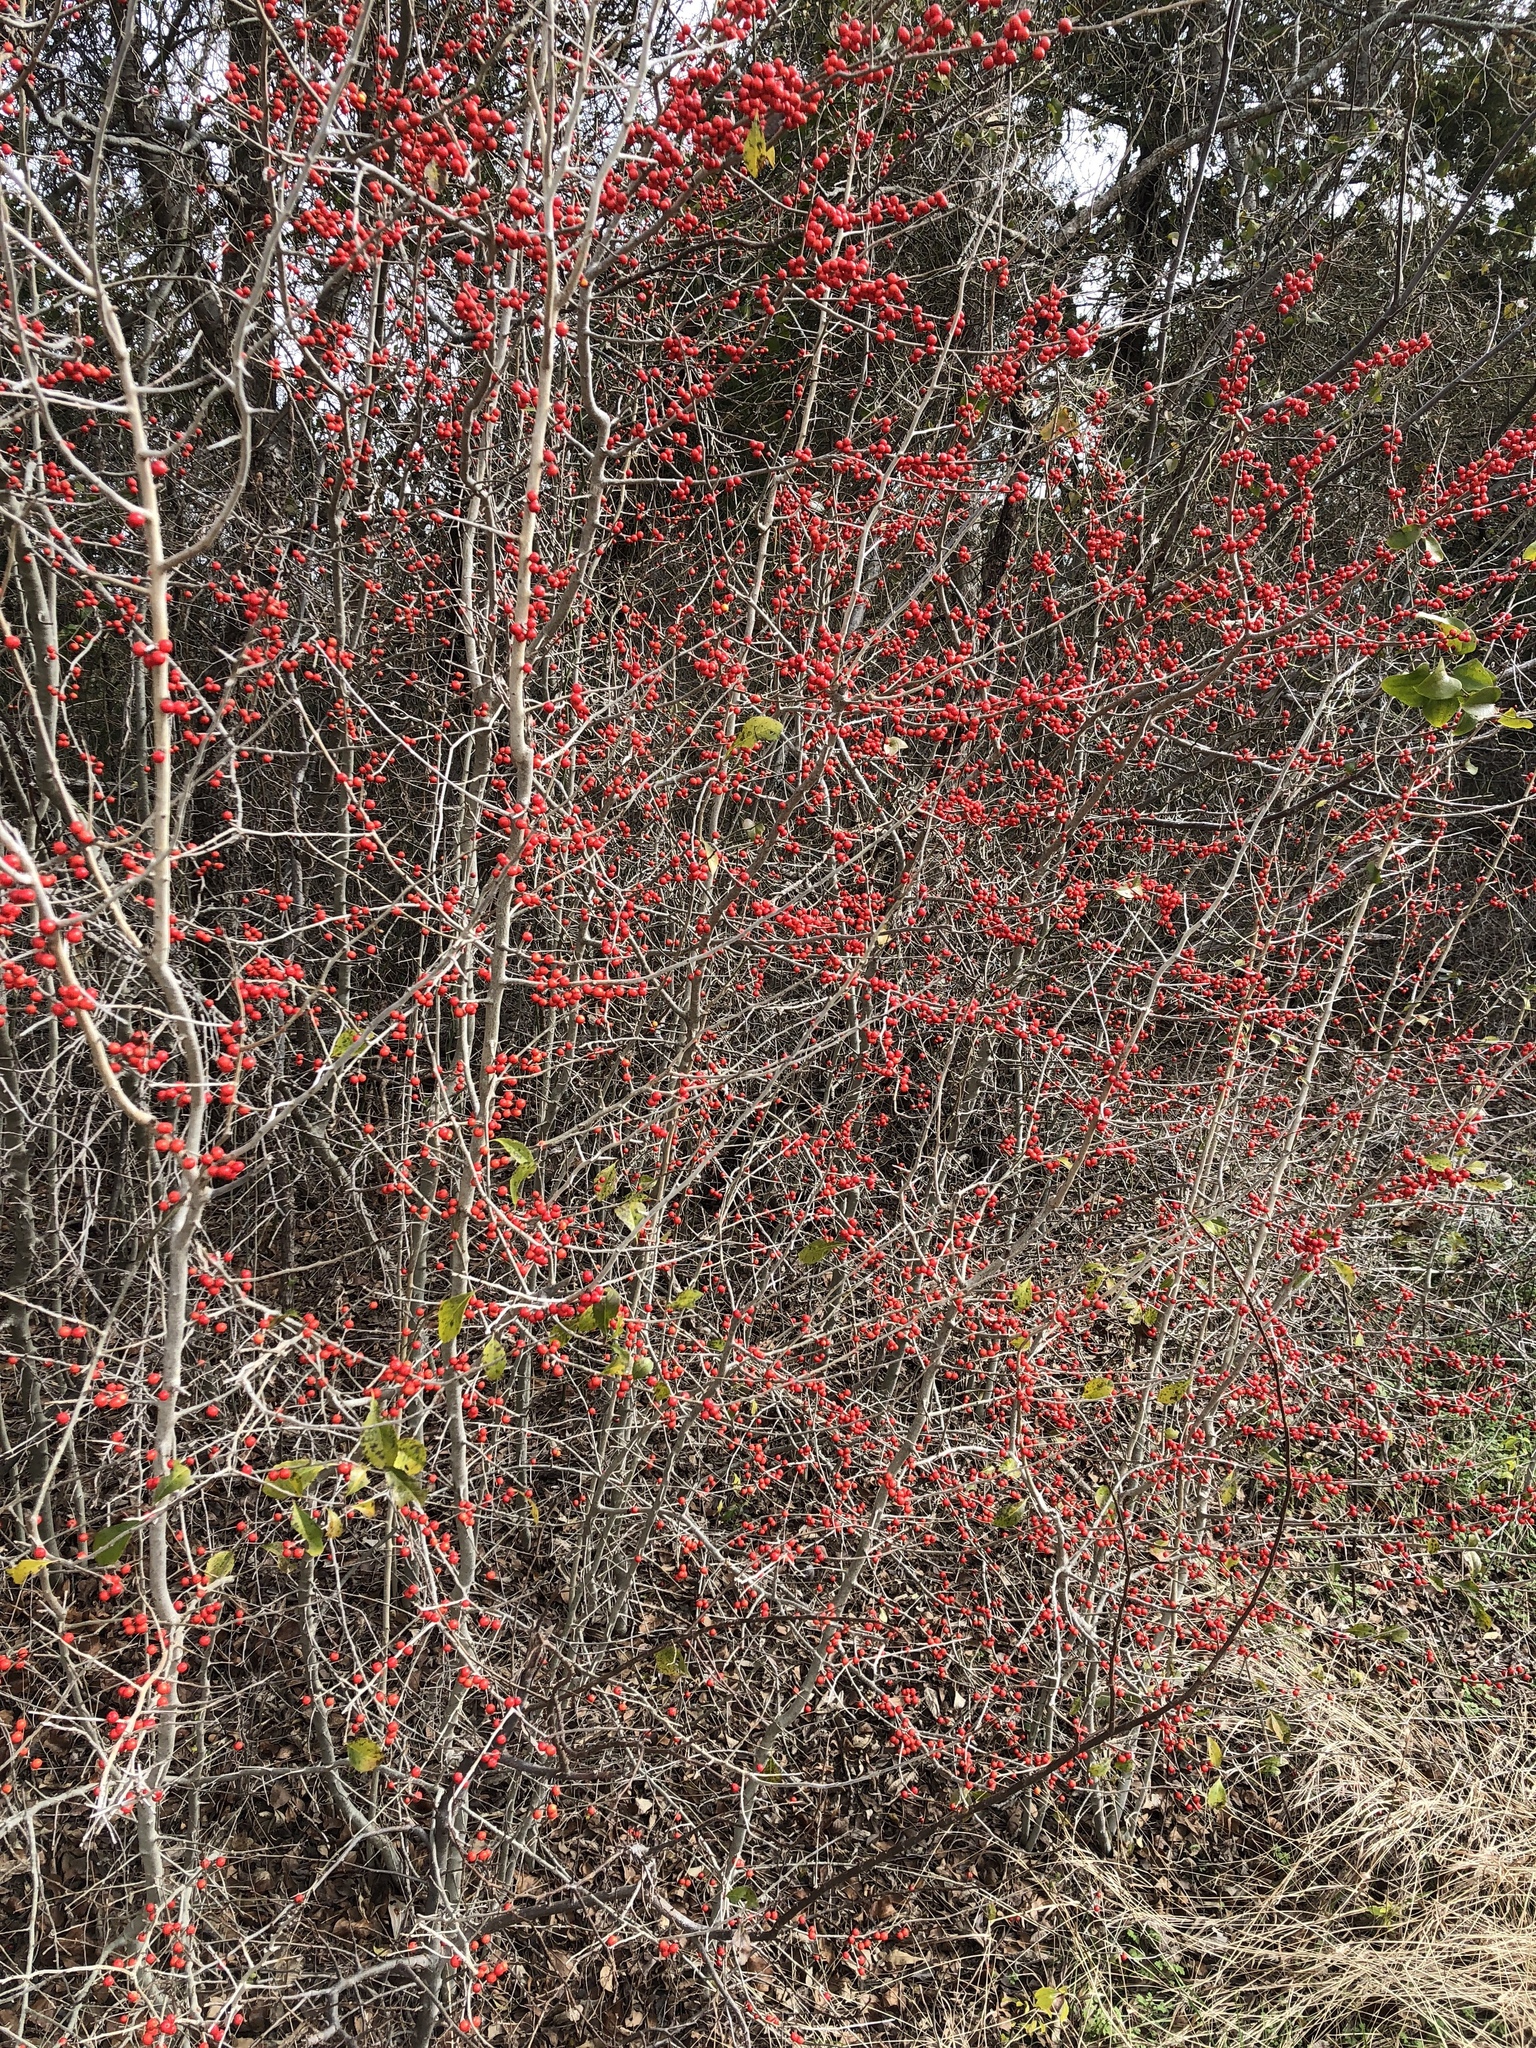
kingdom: Plantae
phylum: Tracheophyta
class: Magnoliopsida
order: Aquifoliales
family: Aquifoliaceae
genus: Ilex
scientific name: Ilex decidua
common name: Possum-haw
